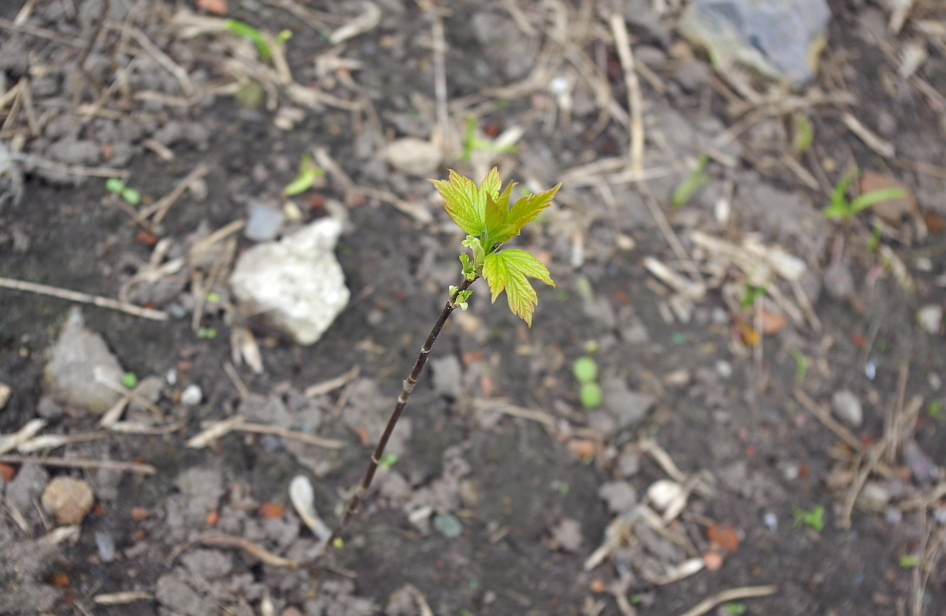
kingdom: Plantae
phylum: Tracheophyta
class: Magnoliopsida
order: Sapindales
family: Sapindaceae
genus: Acer
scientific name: Acer negundo
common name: Ashleaf maple
